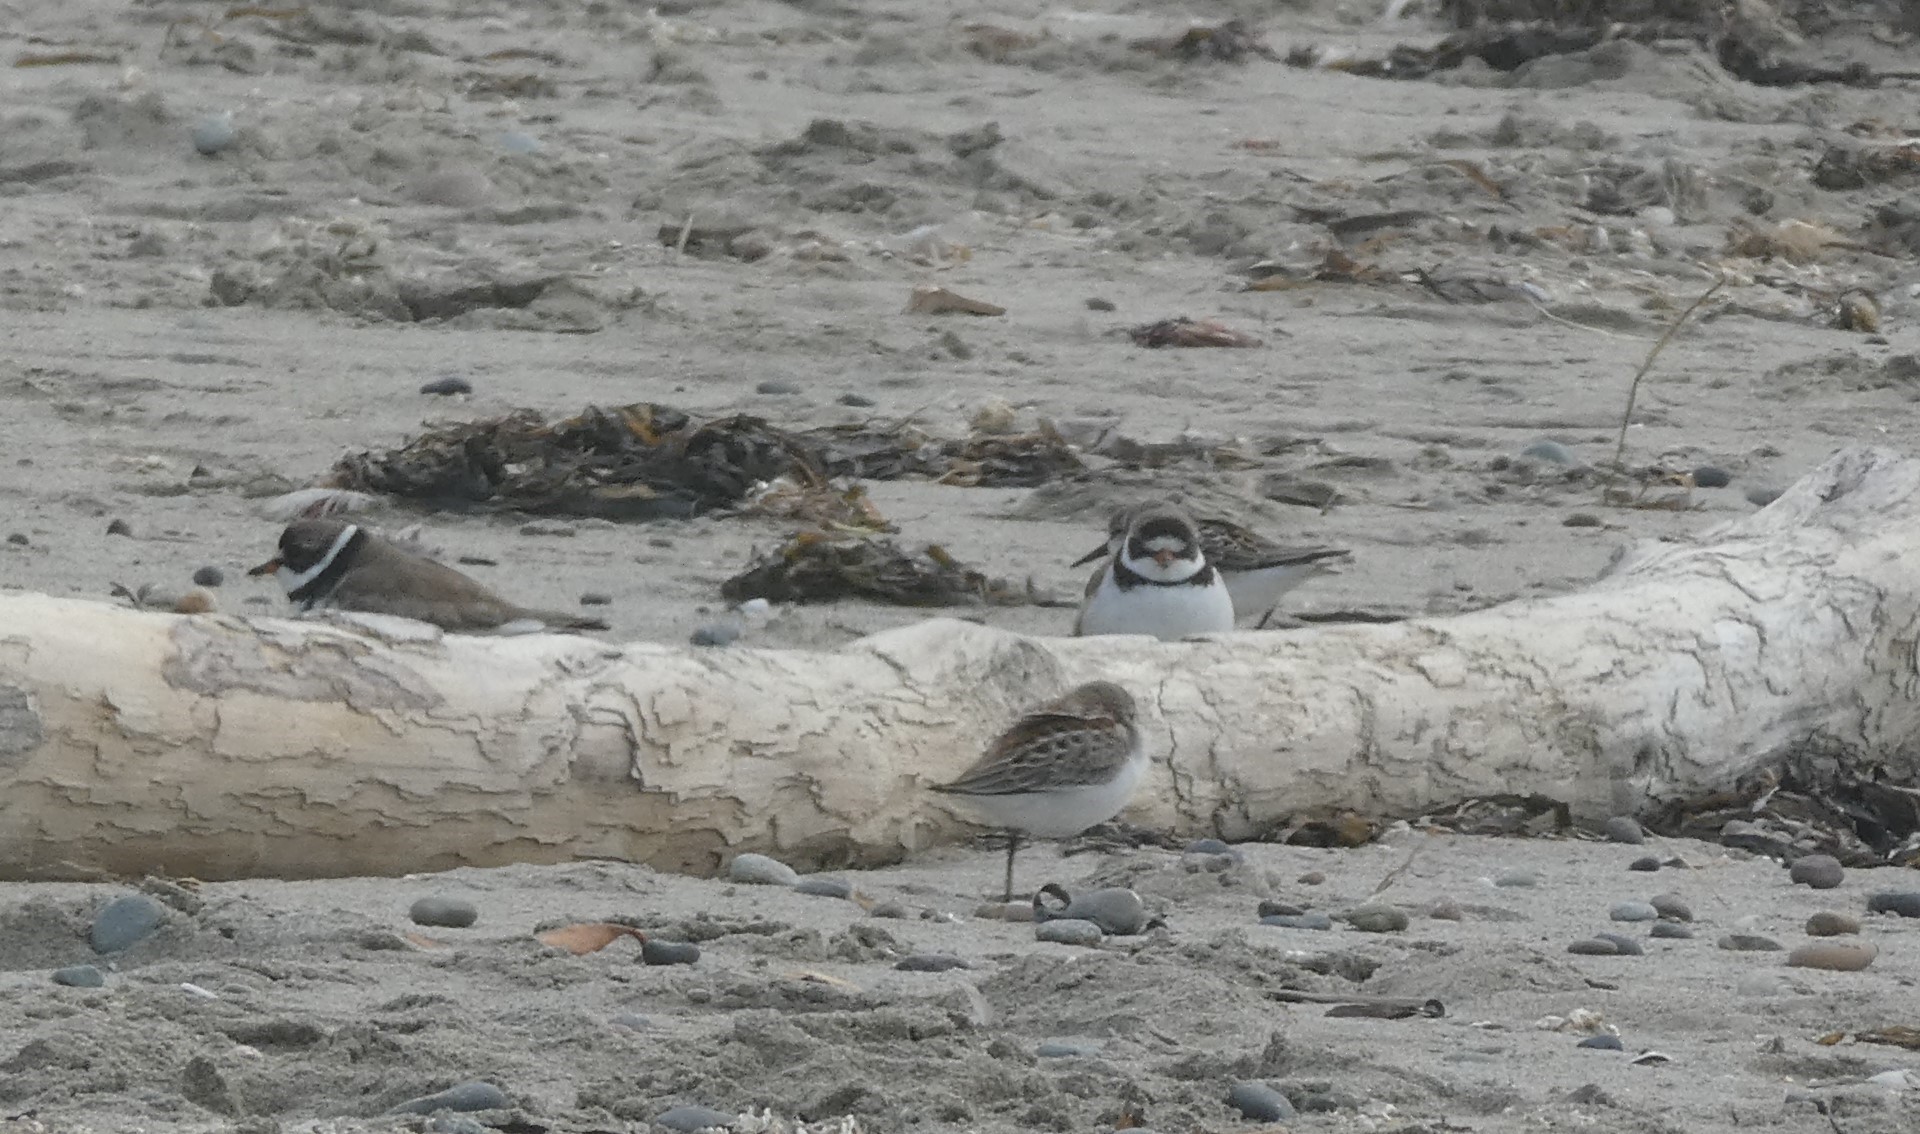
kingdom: Animalia
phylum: Chordata
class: Aves
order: Charadriiformes
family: Charadriidae
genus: Charadrius
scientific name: Charadrius semipalmatus
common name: Semipalmated plover
